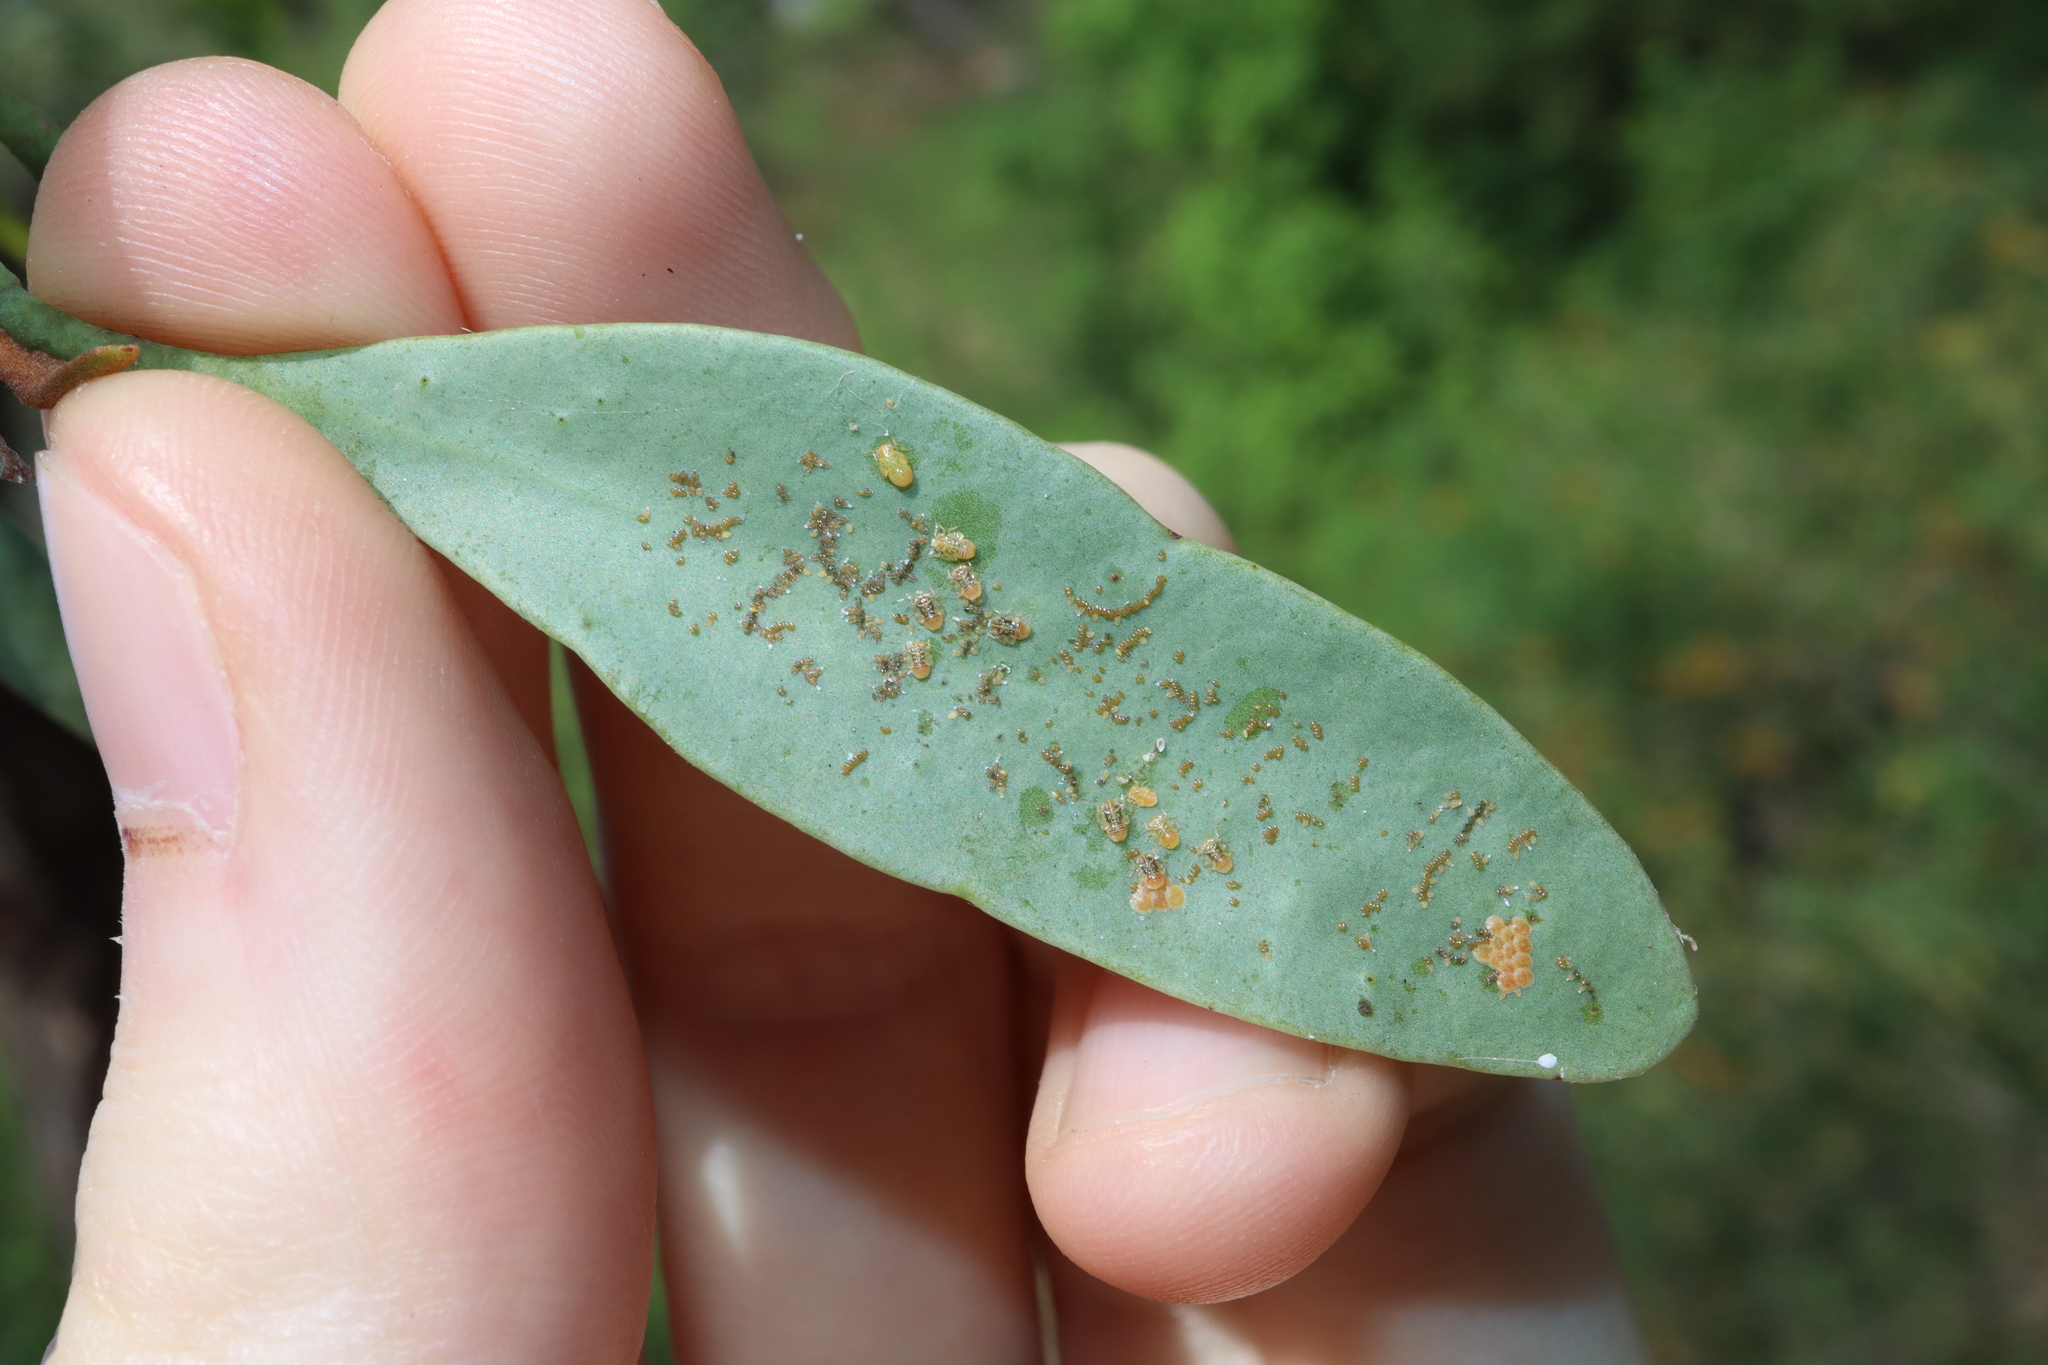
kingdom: Animalia
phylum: Arthropoda
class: Insecta
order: Hemiptera
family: Psyllidae
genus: Acizzia
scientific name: Acizzia miraculosa
